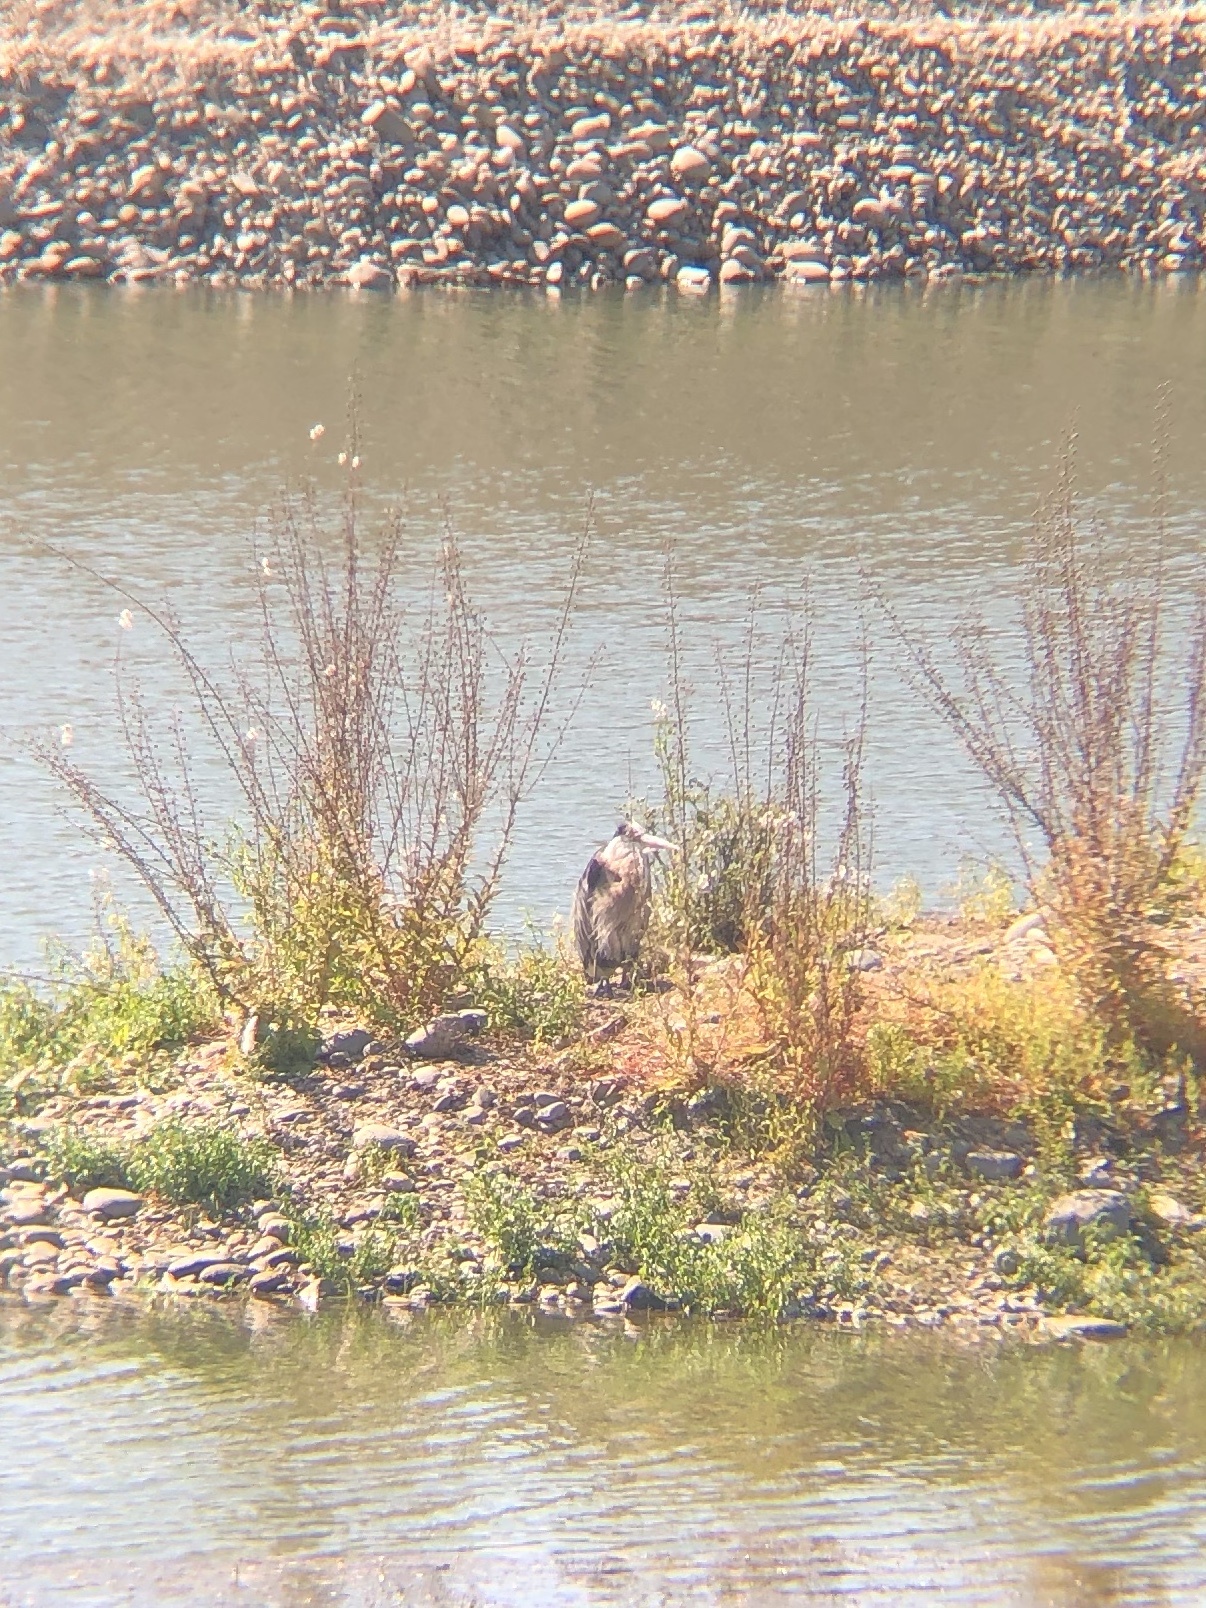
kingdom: Animalia
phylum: Chordata
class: Aves
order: Pelecaniformes
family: Ardeidae
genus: Ardea
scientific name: Ardea herodias
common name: Great blue heron
